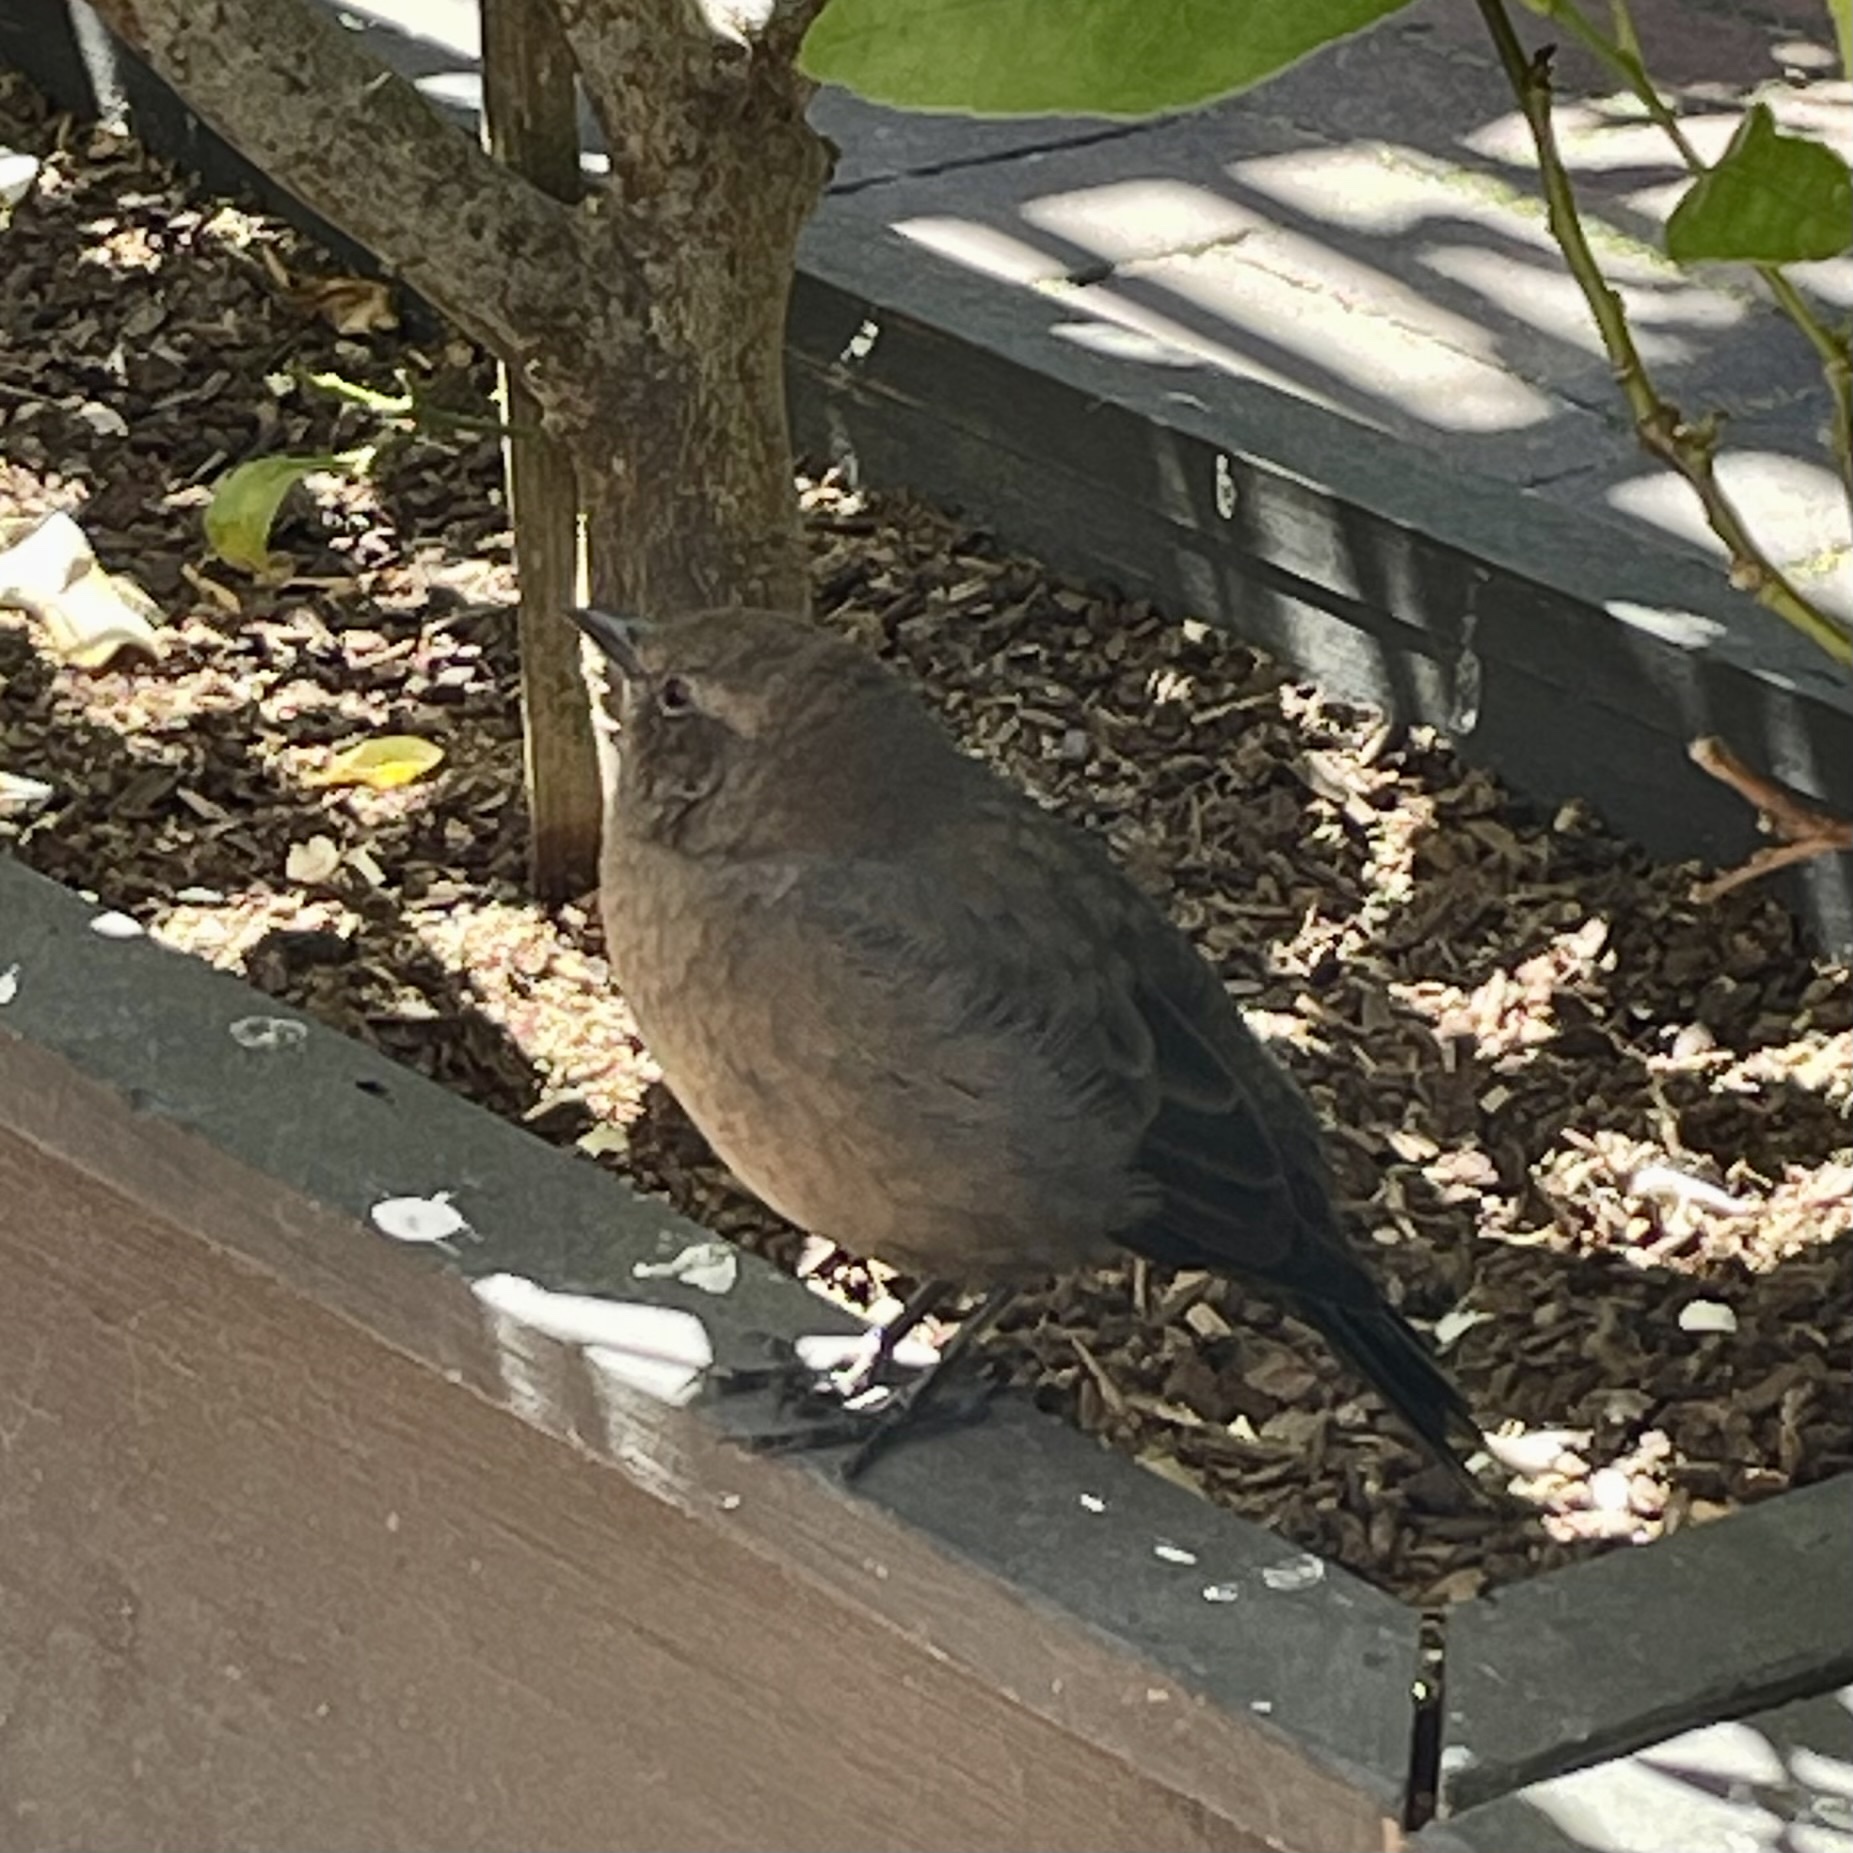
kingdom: Animalia
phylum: Chordata
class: Aves
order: Passeriformes
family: Icteridae
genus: Euphagus
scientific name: Euphagus cyanocephalus
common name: Brewer's blackbird
